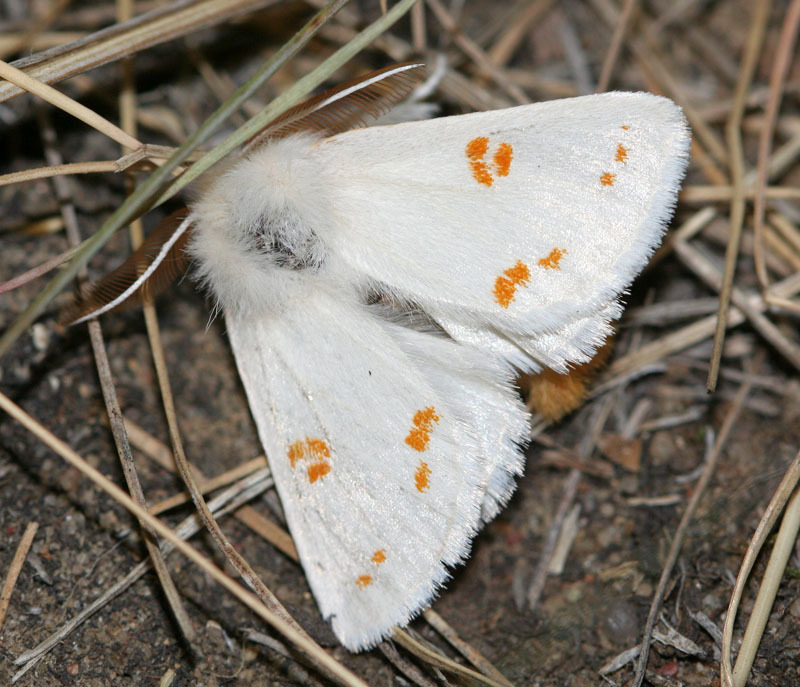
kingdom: Animalia
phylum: Arthropoda
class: Insecta
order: Lepidoptera
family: Erebidae
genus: Euproctis
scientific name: Euproctis kargalika
